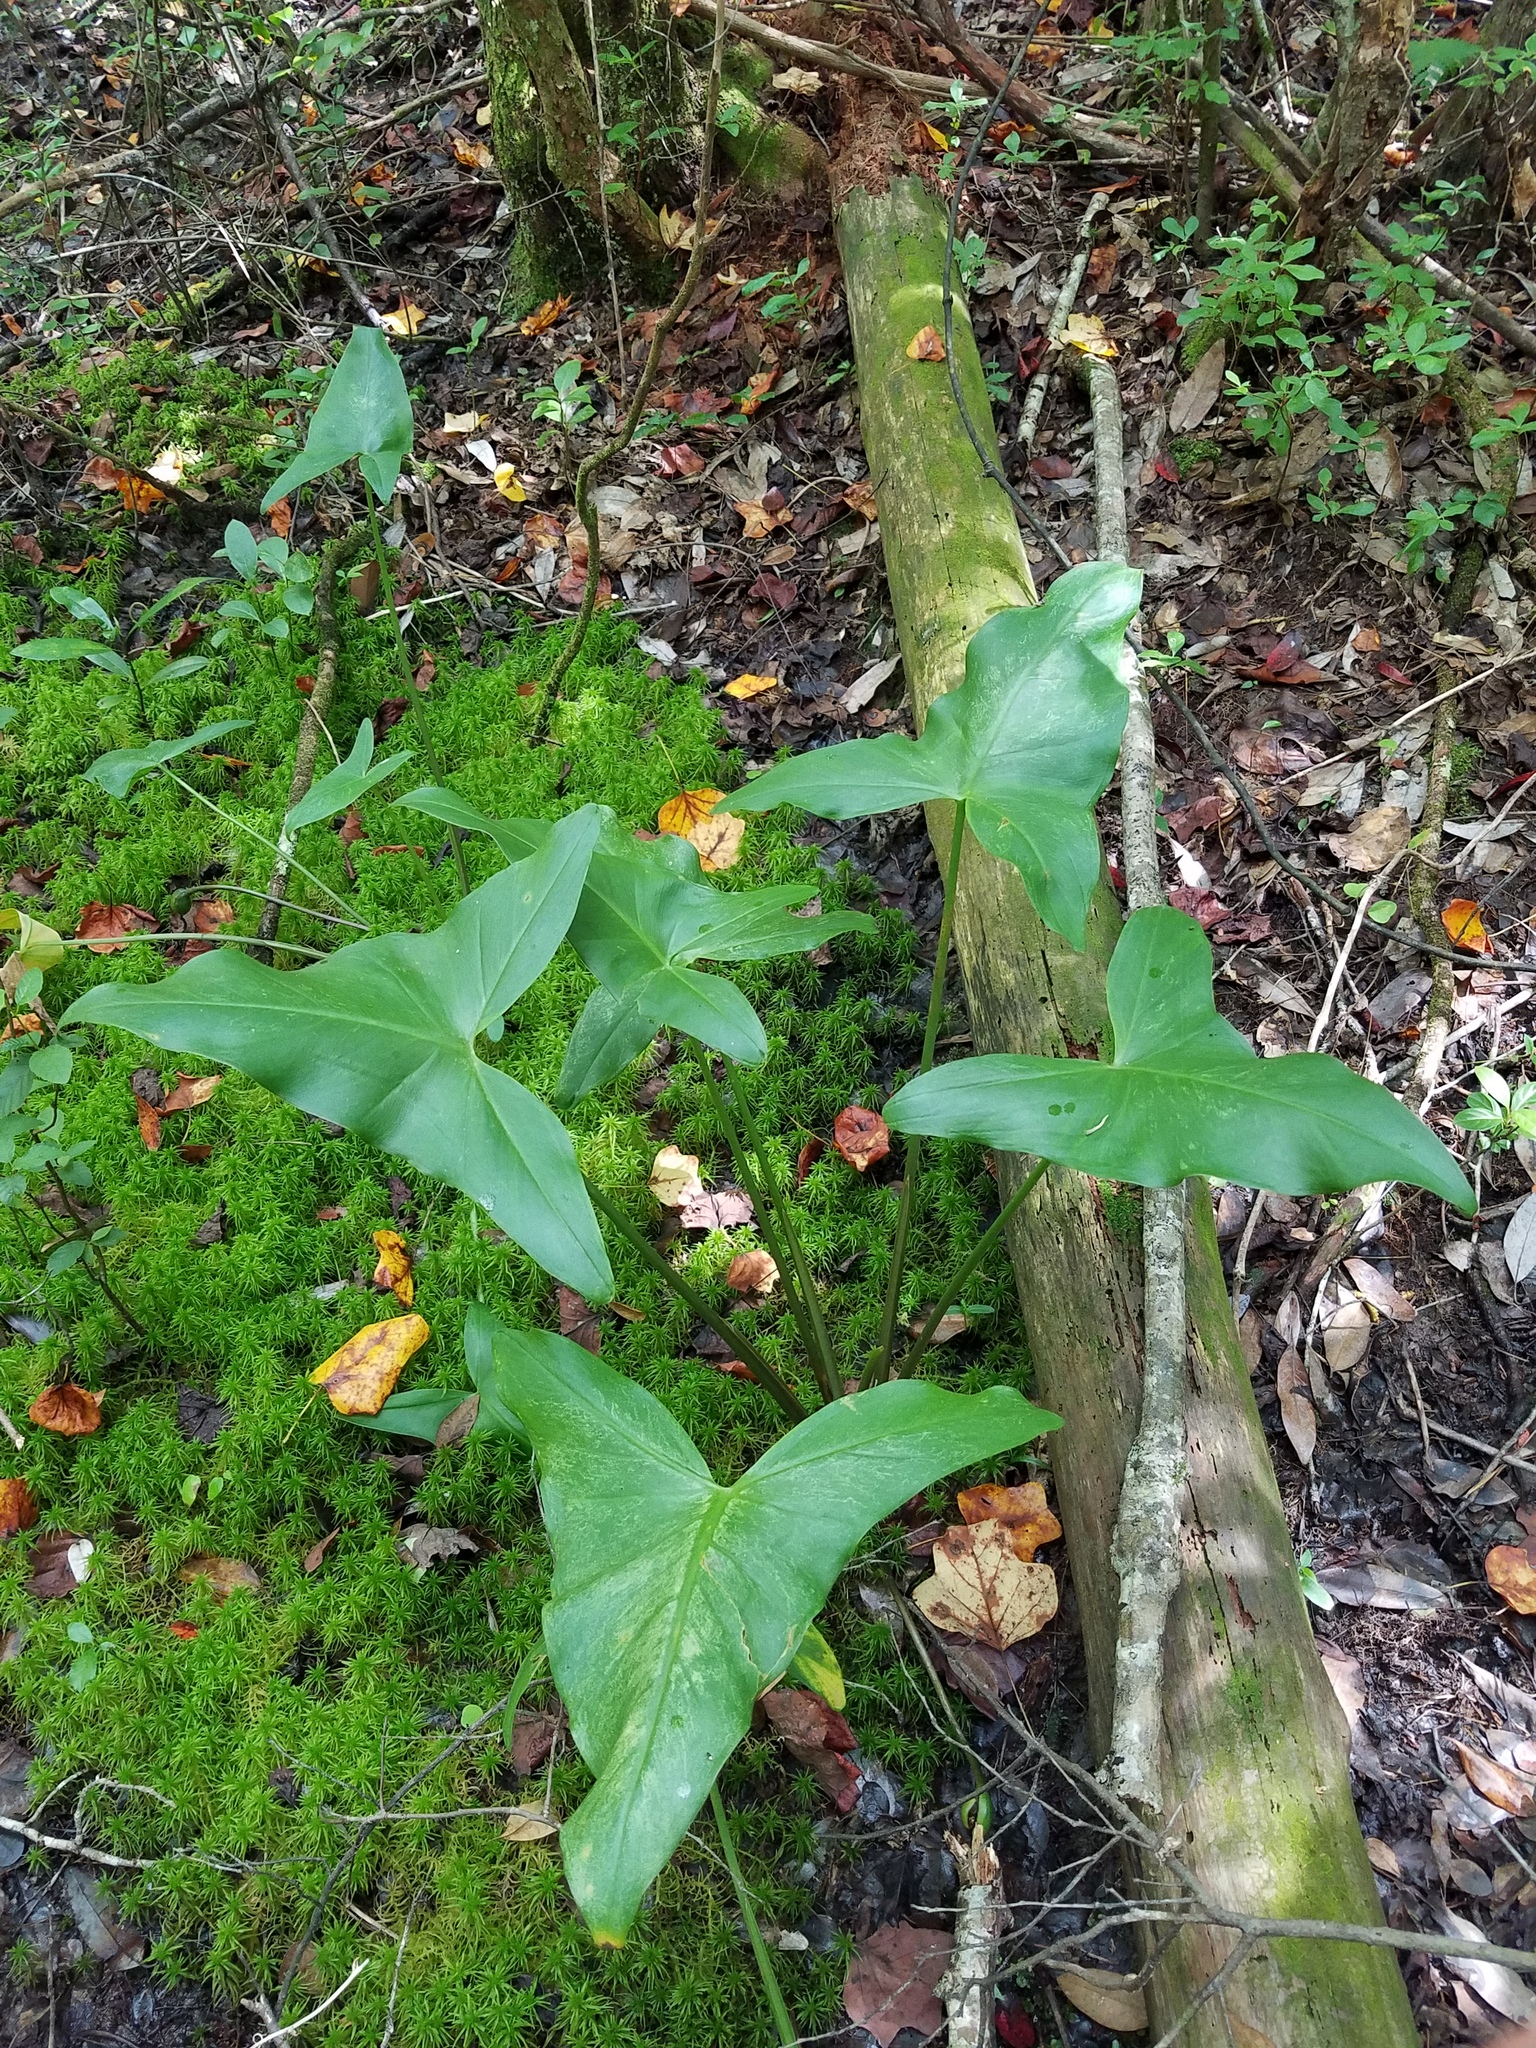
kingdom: Plantae
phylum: Tracheophyta
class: Liliopsida
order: Alismatales
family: Araceae
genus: Peltandra
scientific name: Peltandra virginica
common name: Arrow arum
